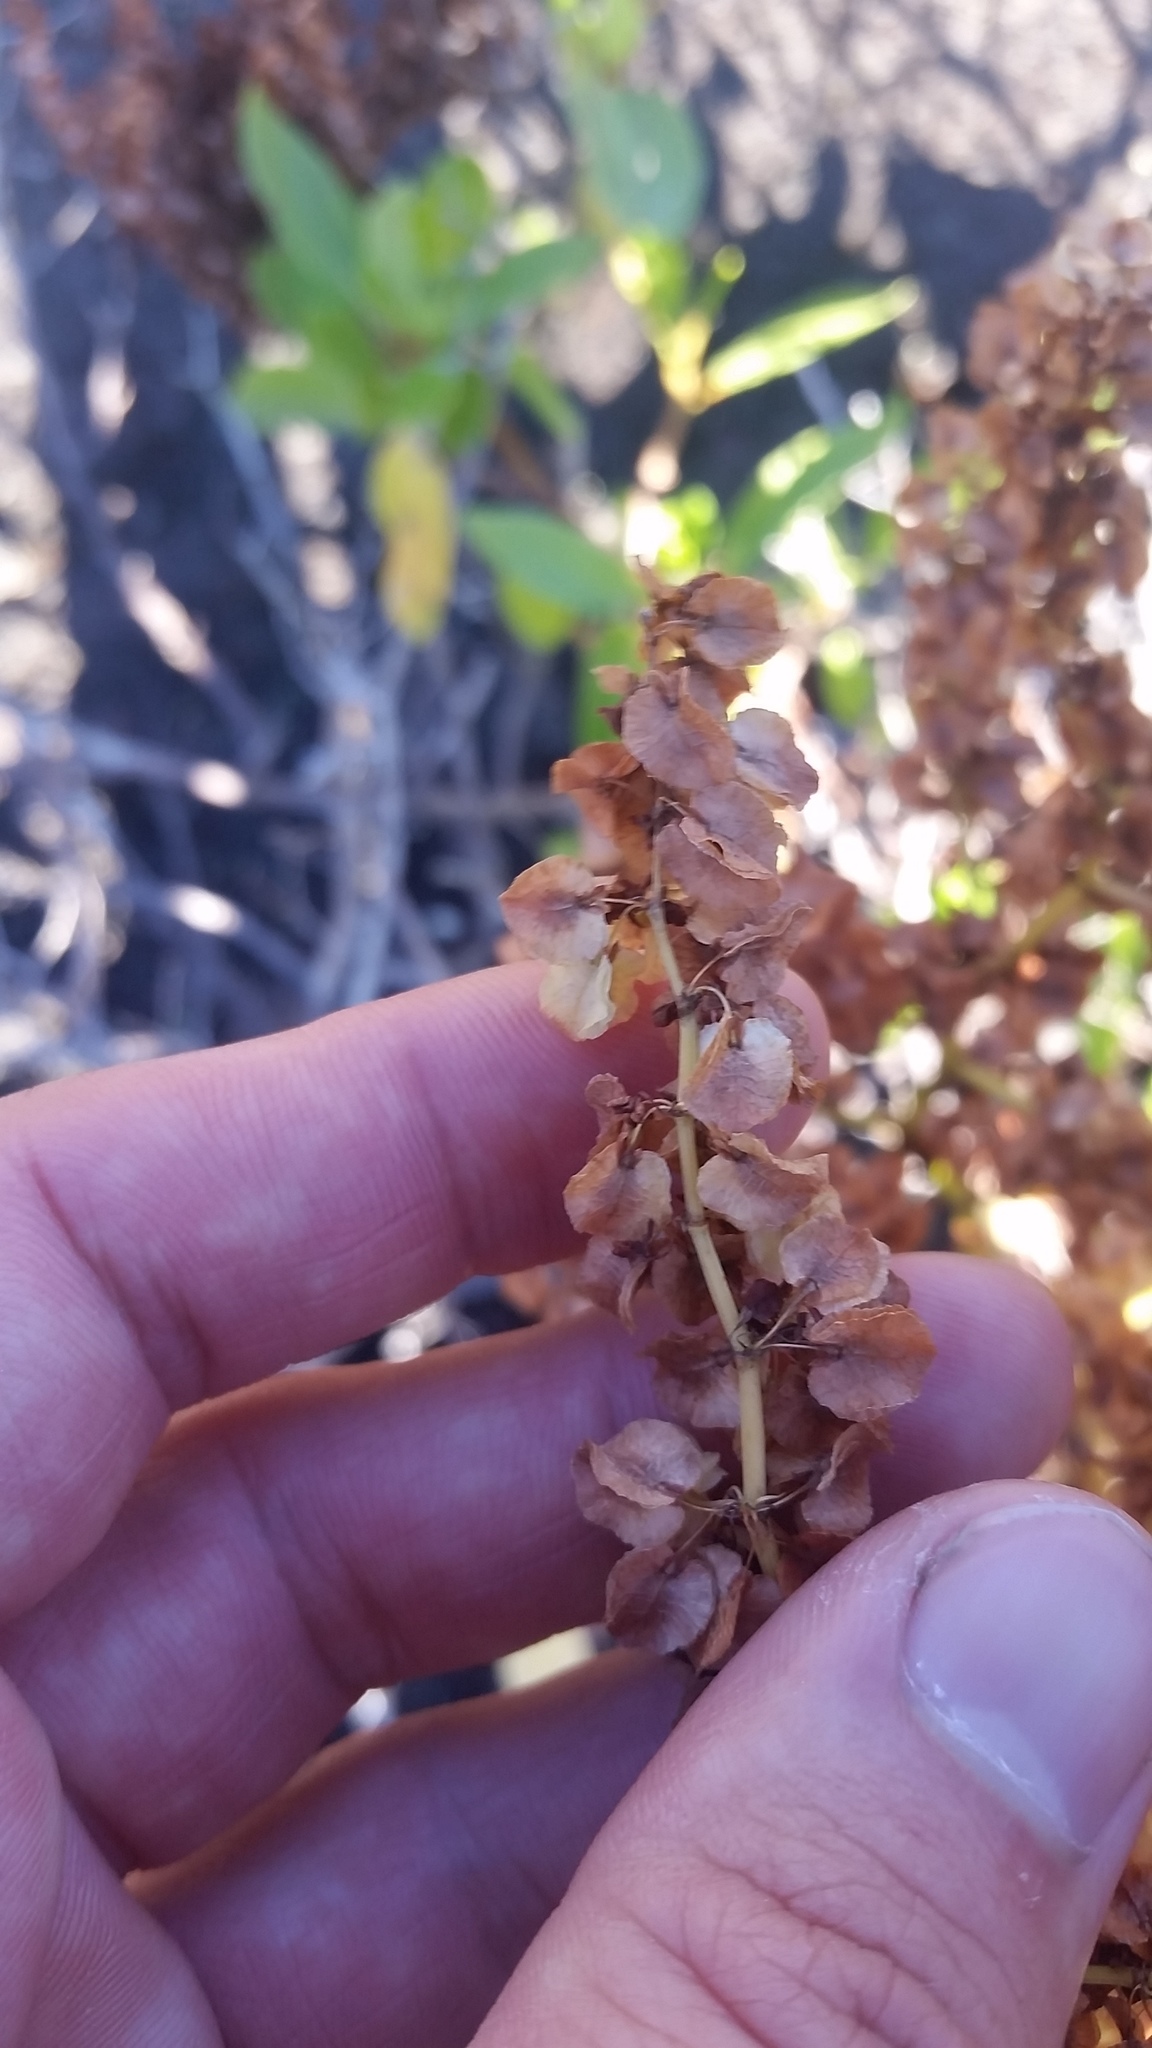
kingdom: Plantae
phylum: Tracheophyta
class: Magnoliopsida
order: Caryophyllales
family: Polygonaceae
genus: Rumex
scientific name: Rumex skottsbergii
